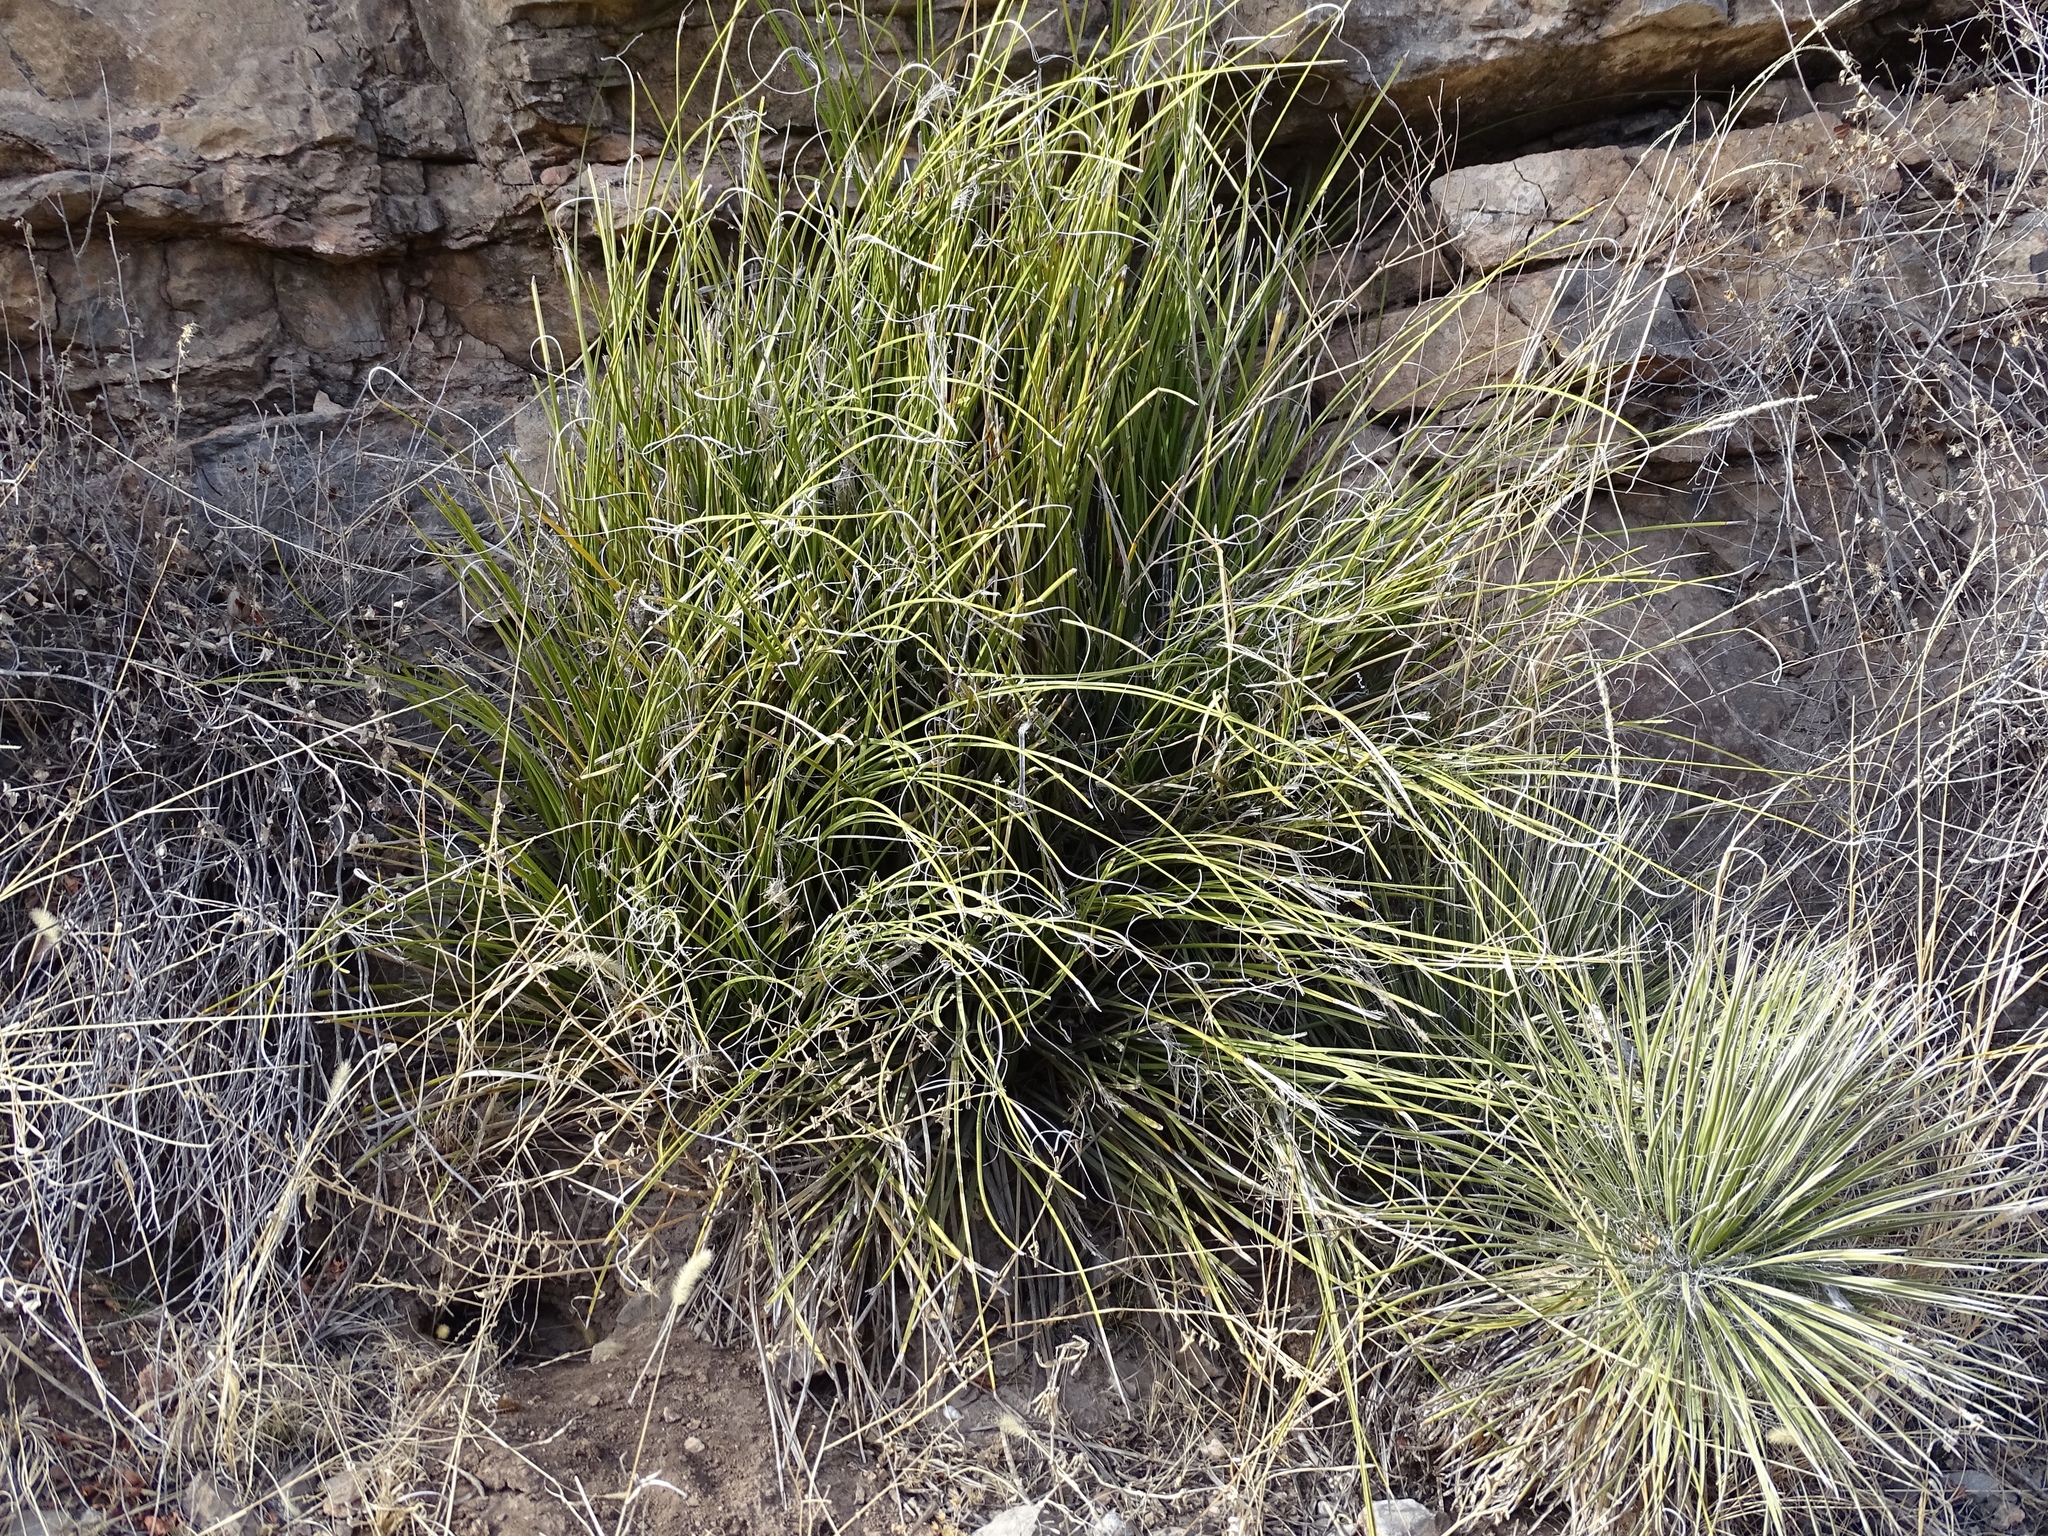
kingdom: Plantae
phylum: Tracheophyta
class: Liliopsida
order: Asparagales
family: Asparagaceae
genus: Nolina
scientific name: Nolina texana
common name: Texas sacahuiste
